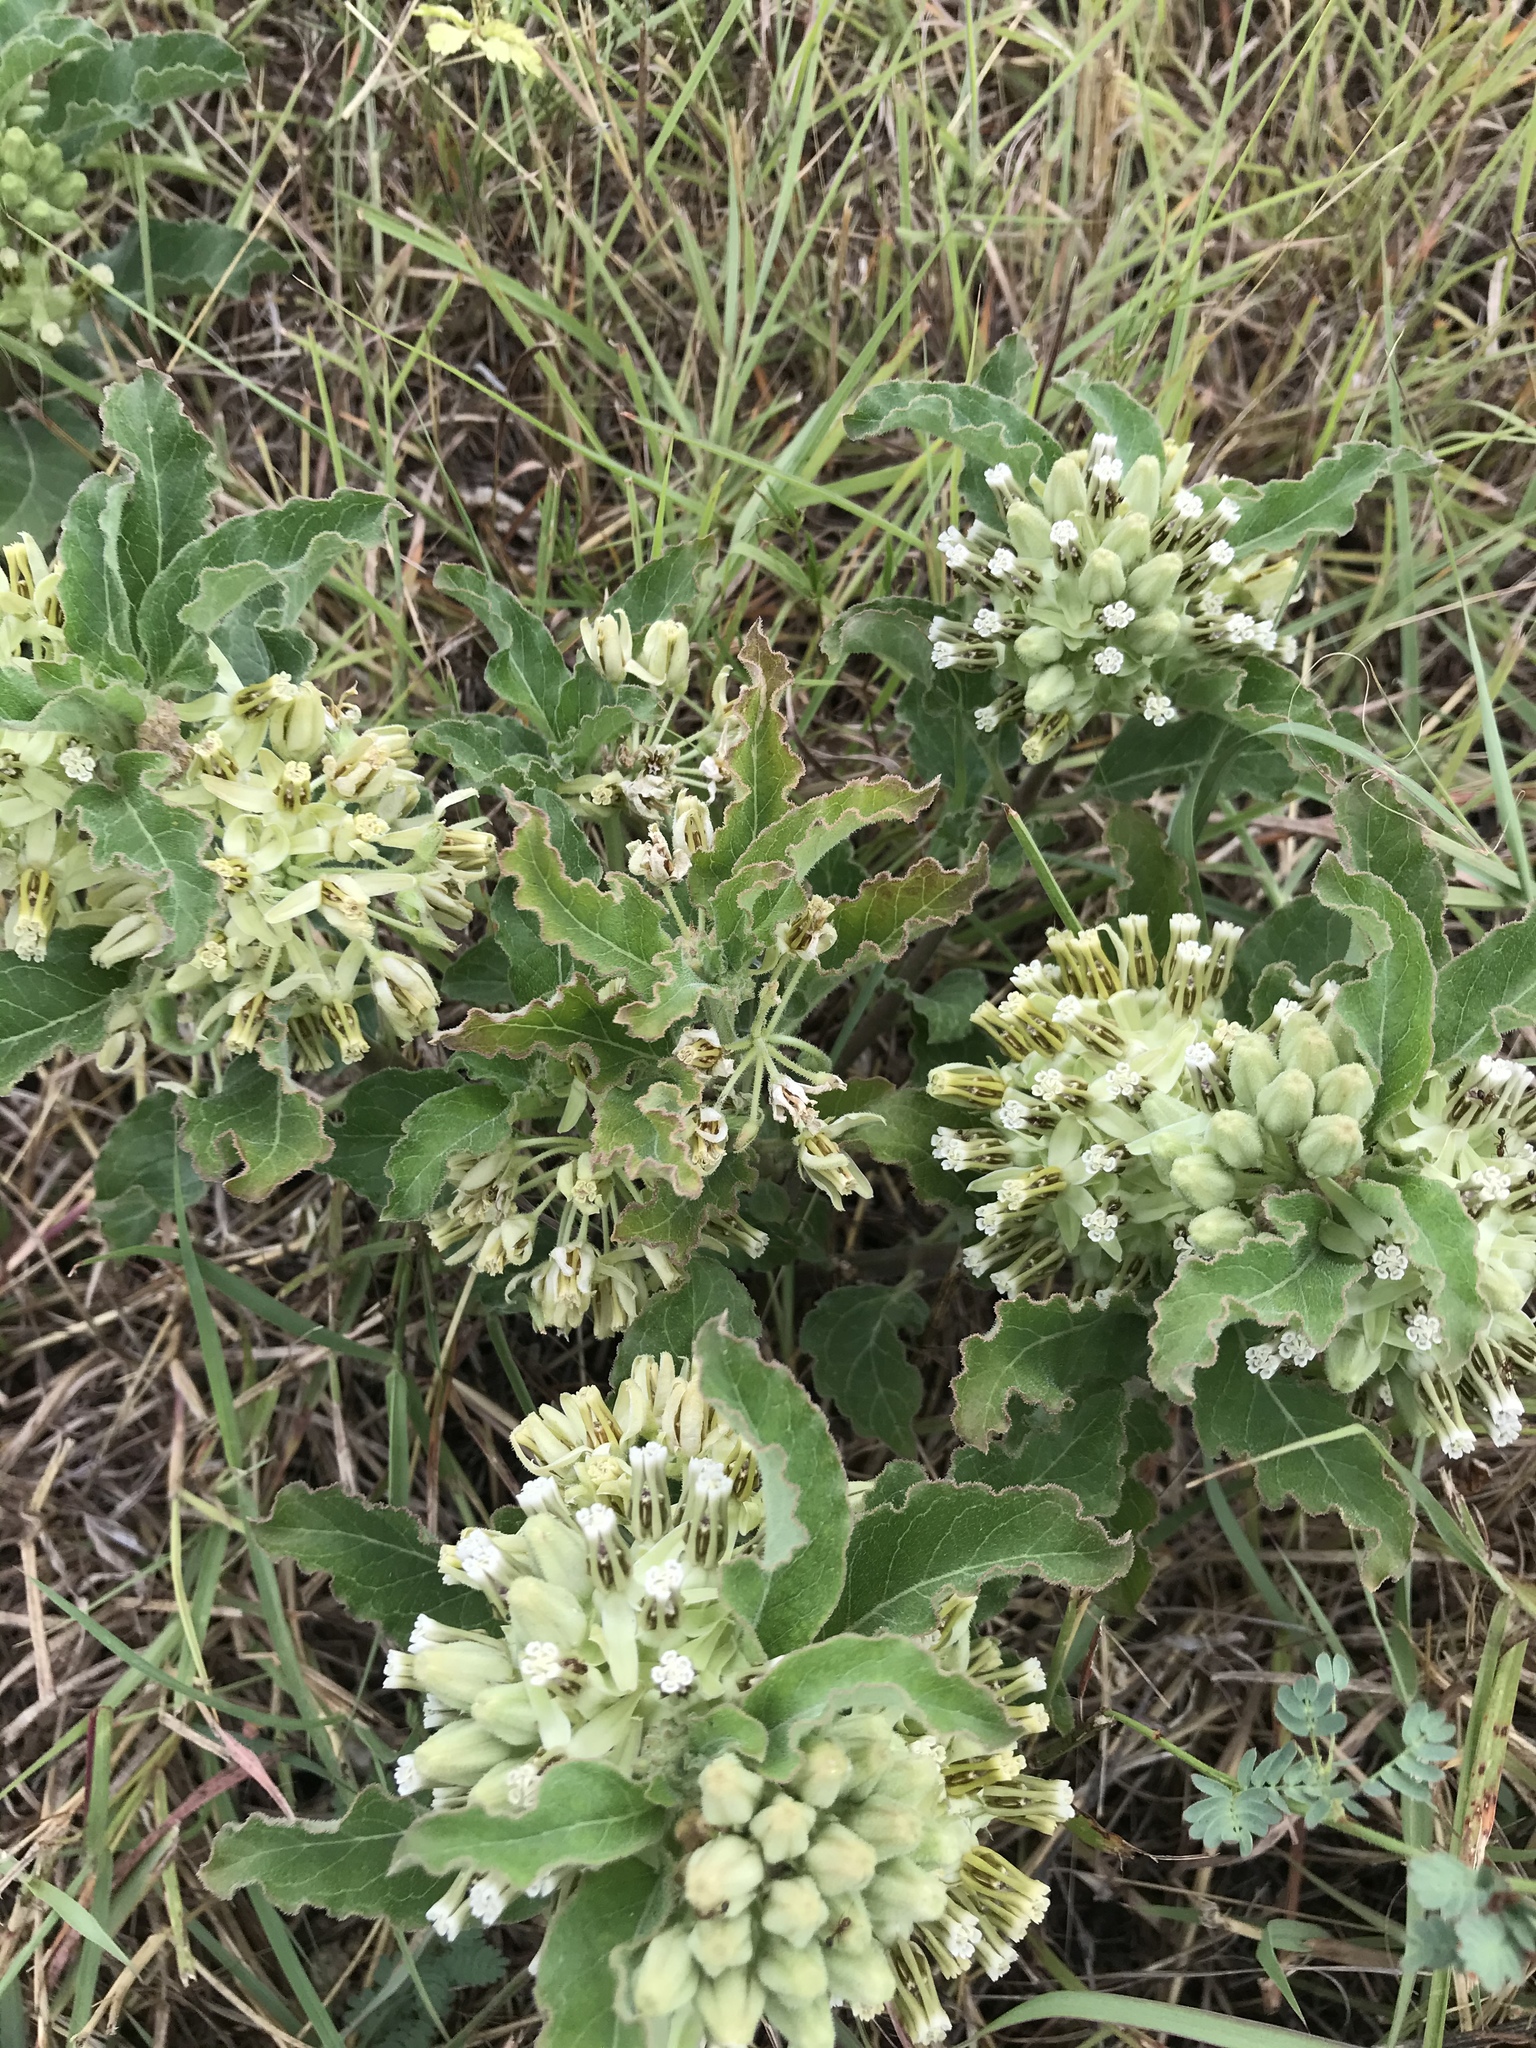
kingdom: Plantae
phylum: Tracheophyta
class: Magnoliopsida
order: Gentianales
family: Apocynaceae
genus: Asclepias
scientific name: Asclepias oenotheroides
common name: Zizotes milkweed
